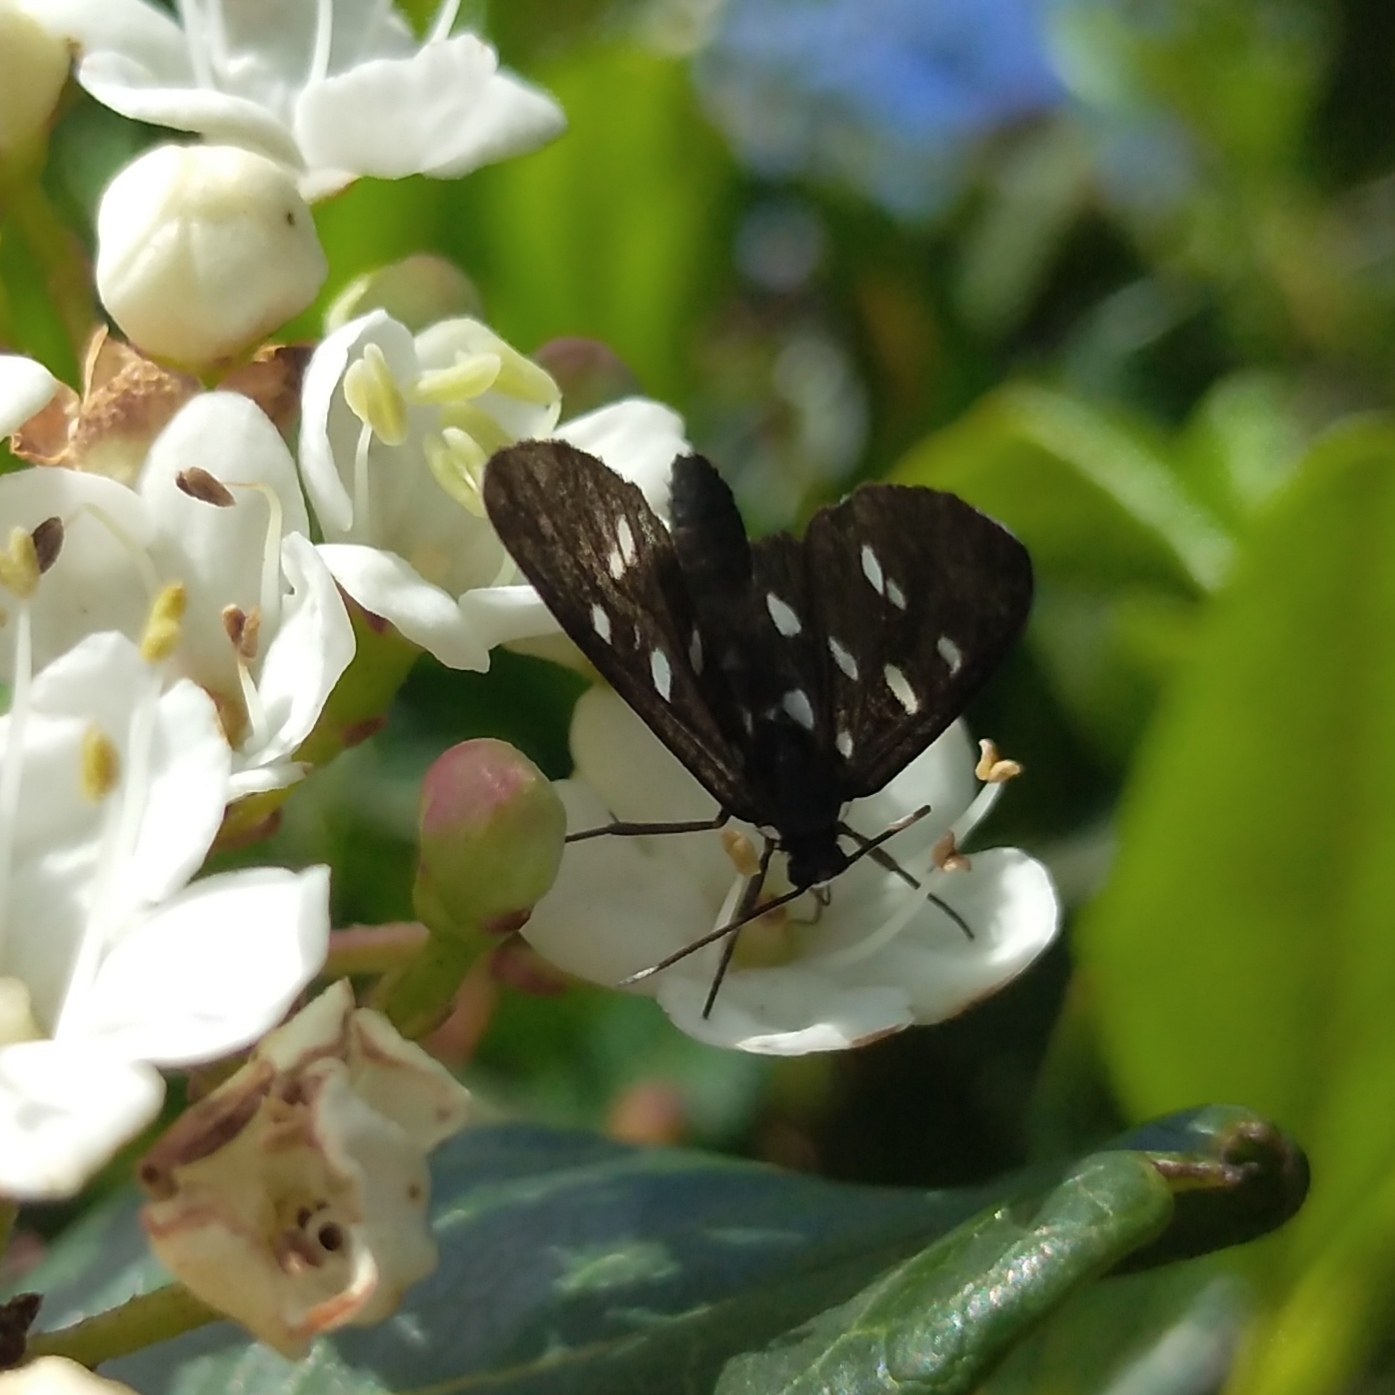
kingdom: Animalia
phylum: Arthropoda
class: Insecta
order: Lepidoptera
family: Erebidae
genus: Ceryx
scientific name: Ceryx longipes
